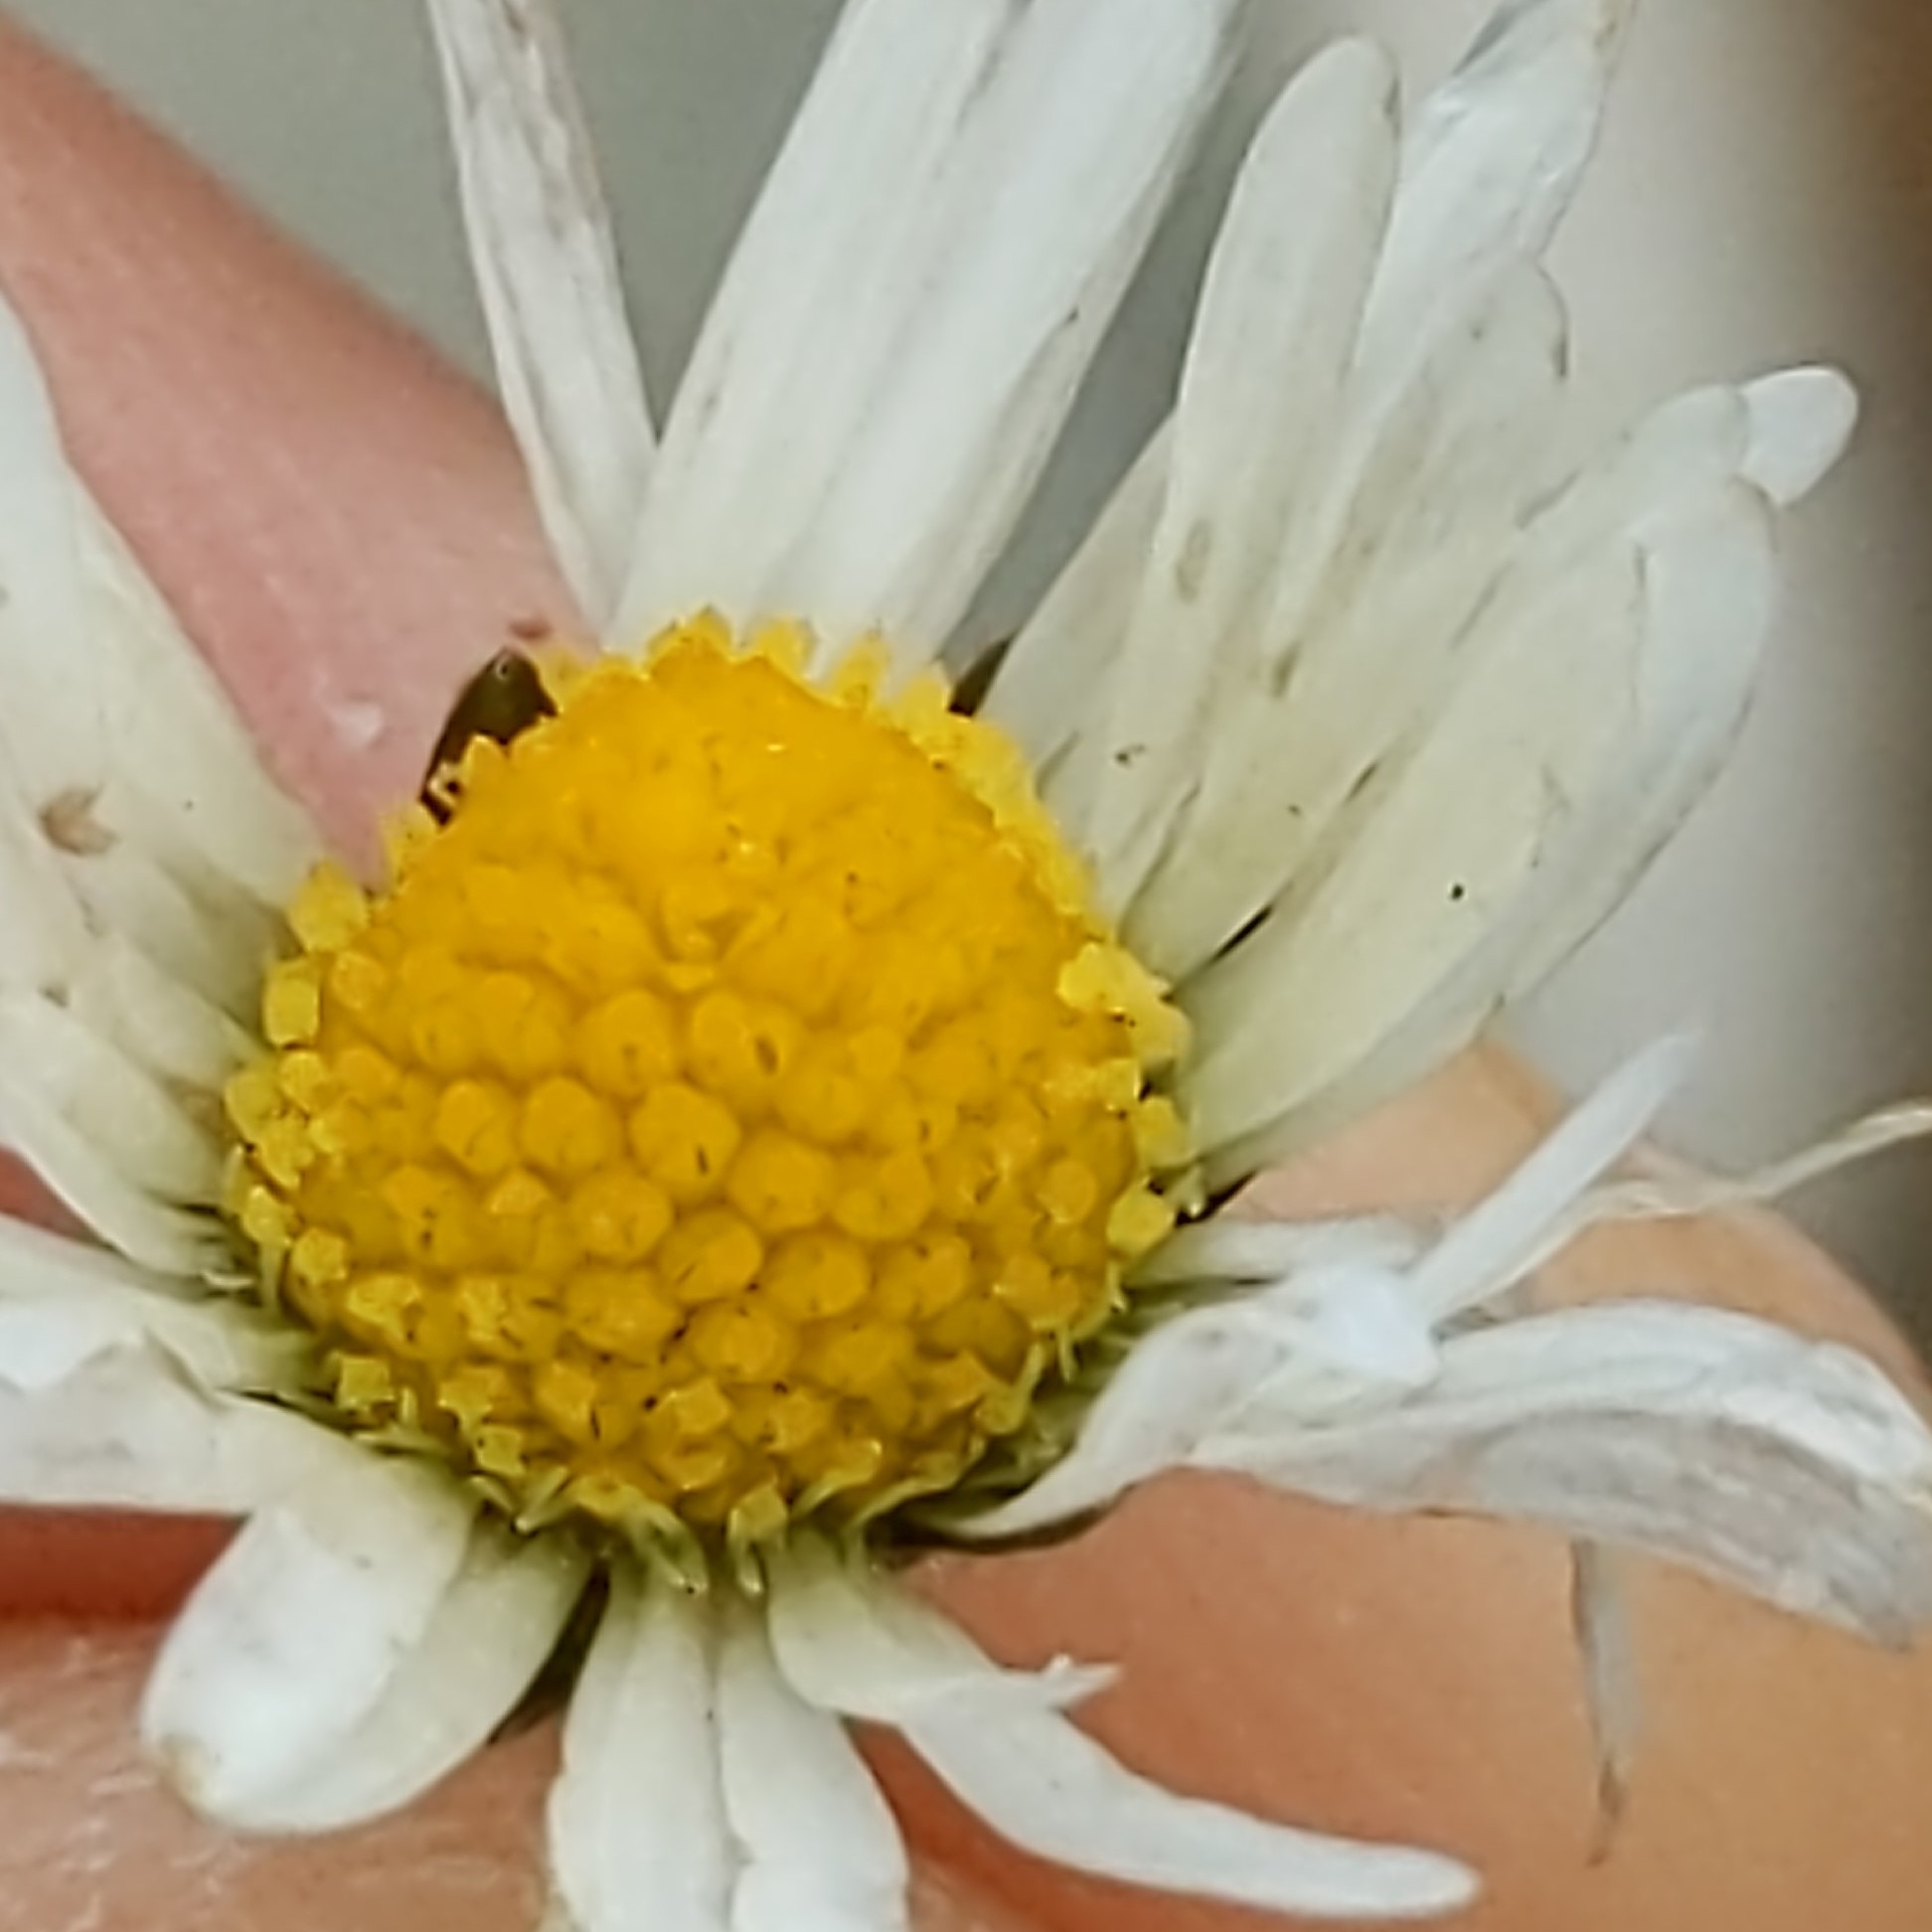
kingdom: Plantae
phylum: Tracheophyta
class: Magnoliopsida
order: Asterales
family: Asteraceae
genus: Bellis
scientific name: Bellis perennis
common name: Lawndaisy
